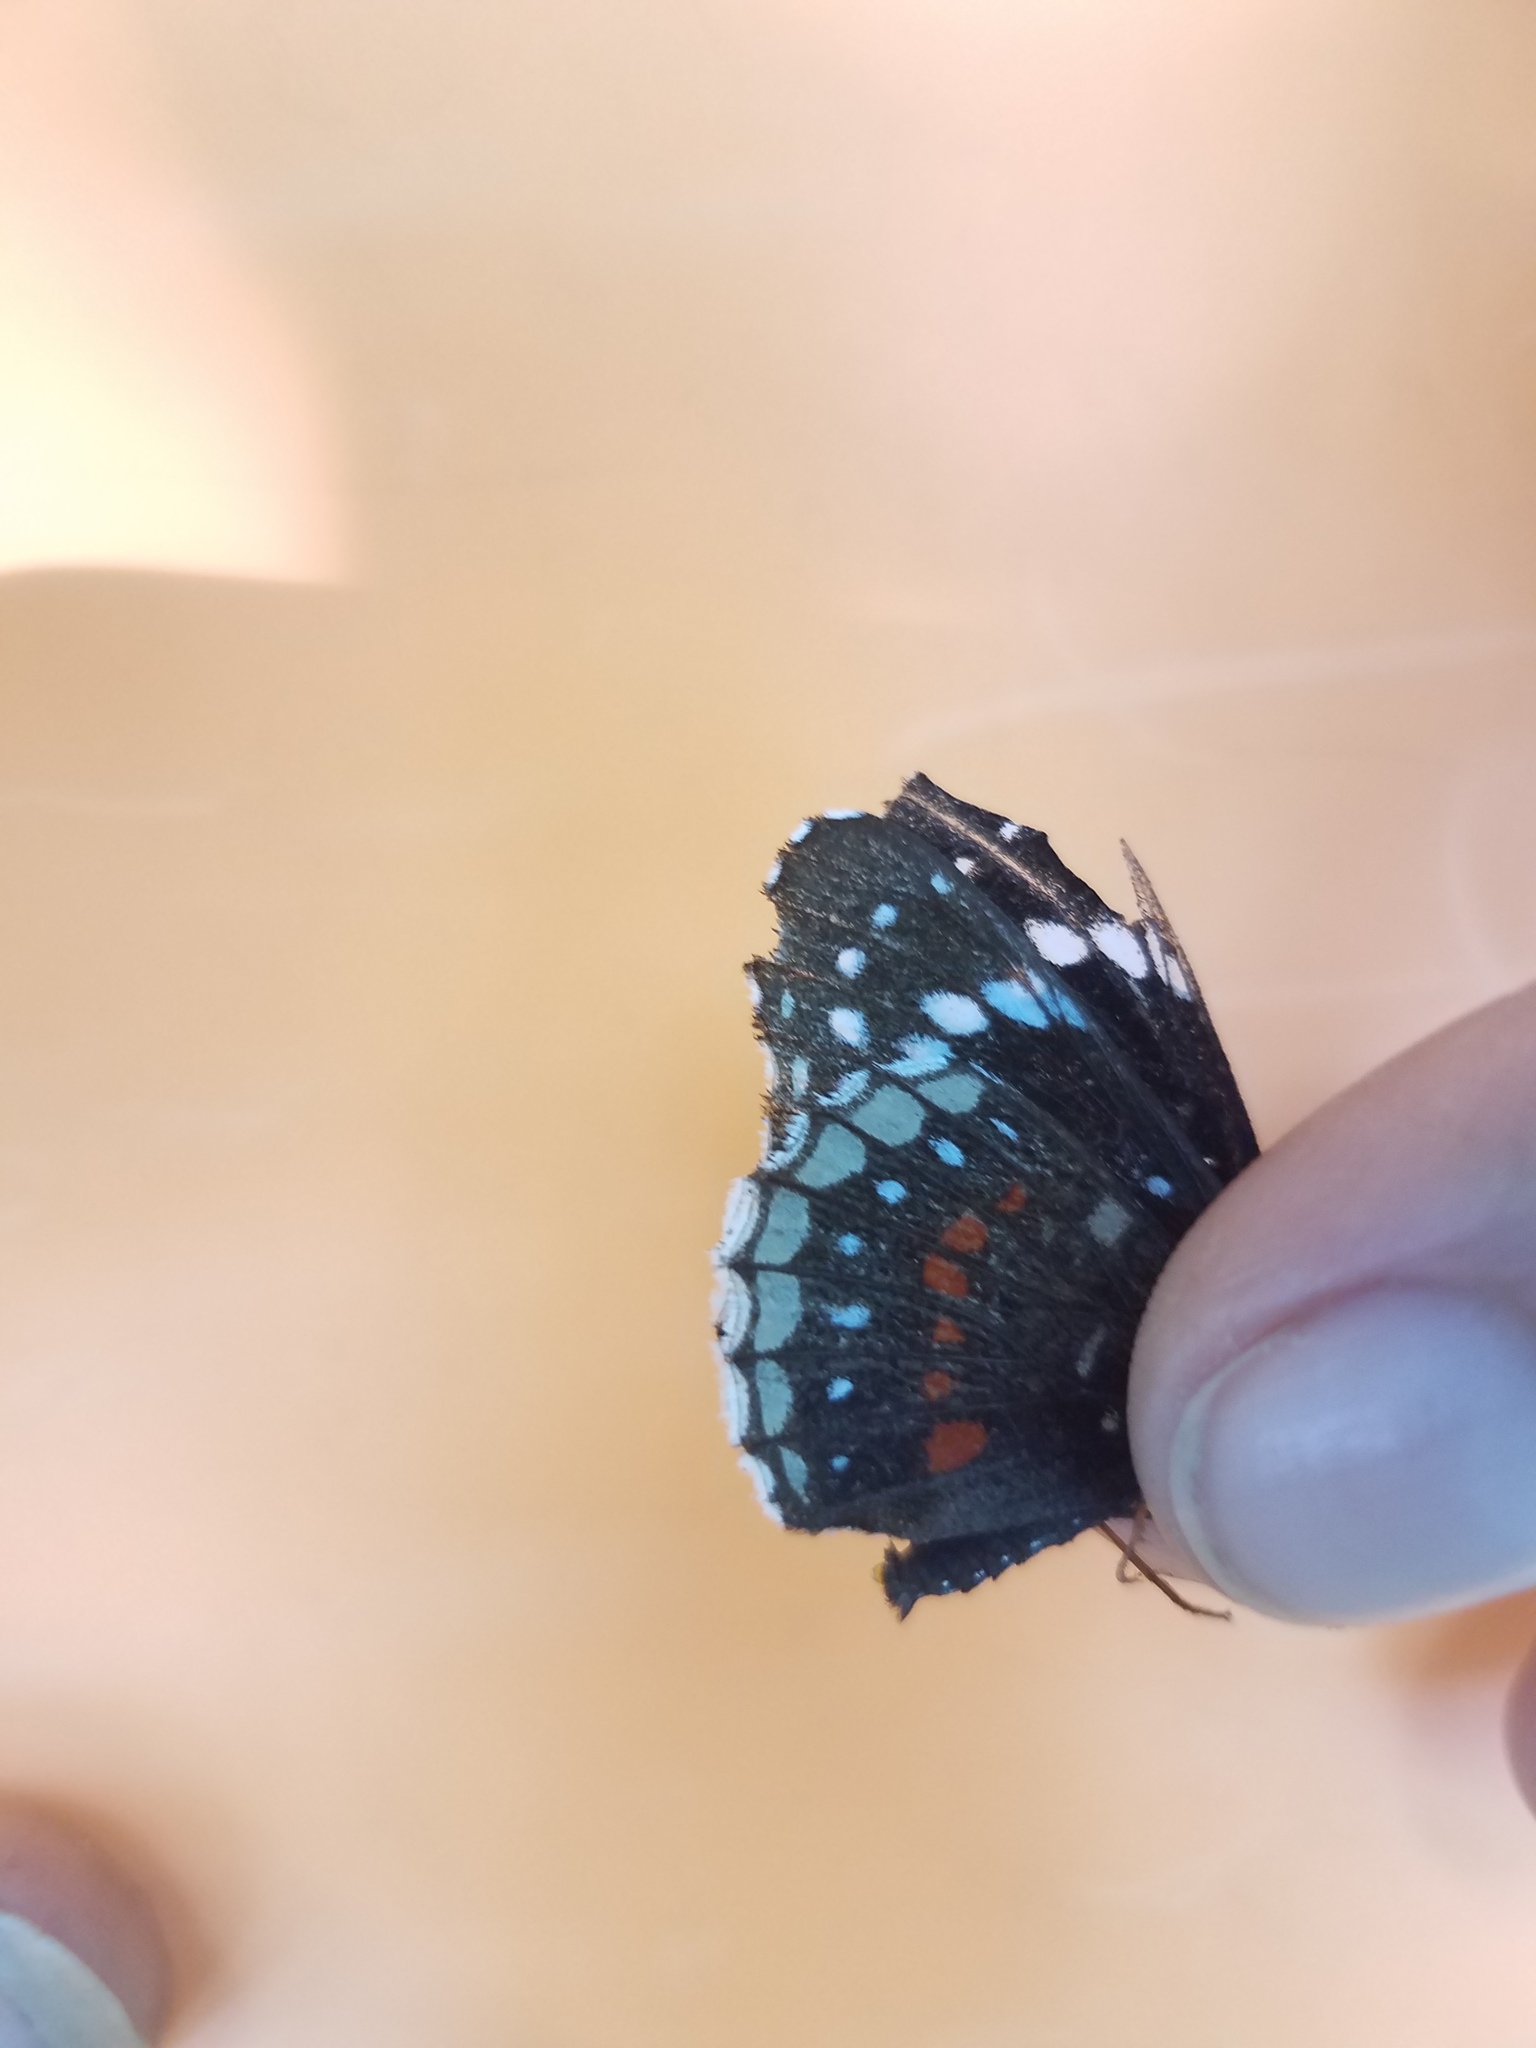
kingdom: Animalia
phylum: Arthropoda
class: Insecta
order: Lepidoptera
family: Nymphalidae
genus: Chlosyne
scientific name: Chlosyne hippodrome
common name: Simple patch
